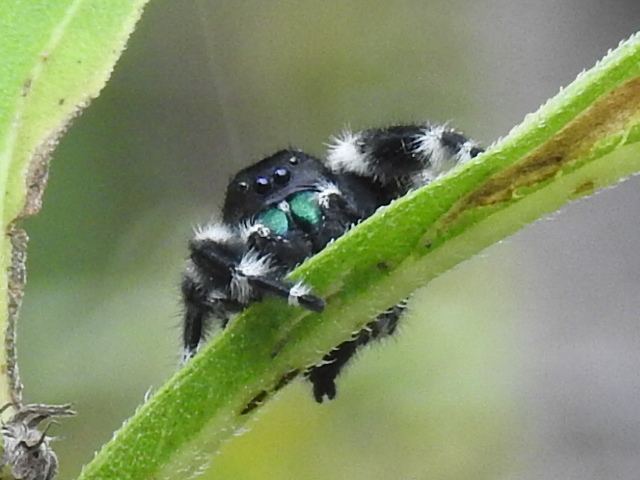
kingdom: Animalia
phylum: Arthropoda
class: Arachnida
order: Araneae
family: Salticidae
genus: Phidippus
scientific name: Phidippus audax
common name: Bold jumper
